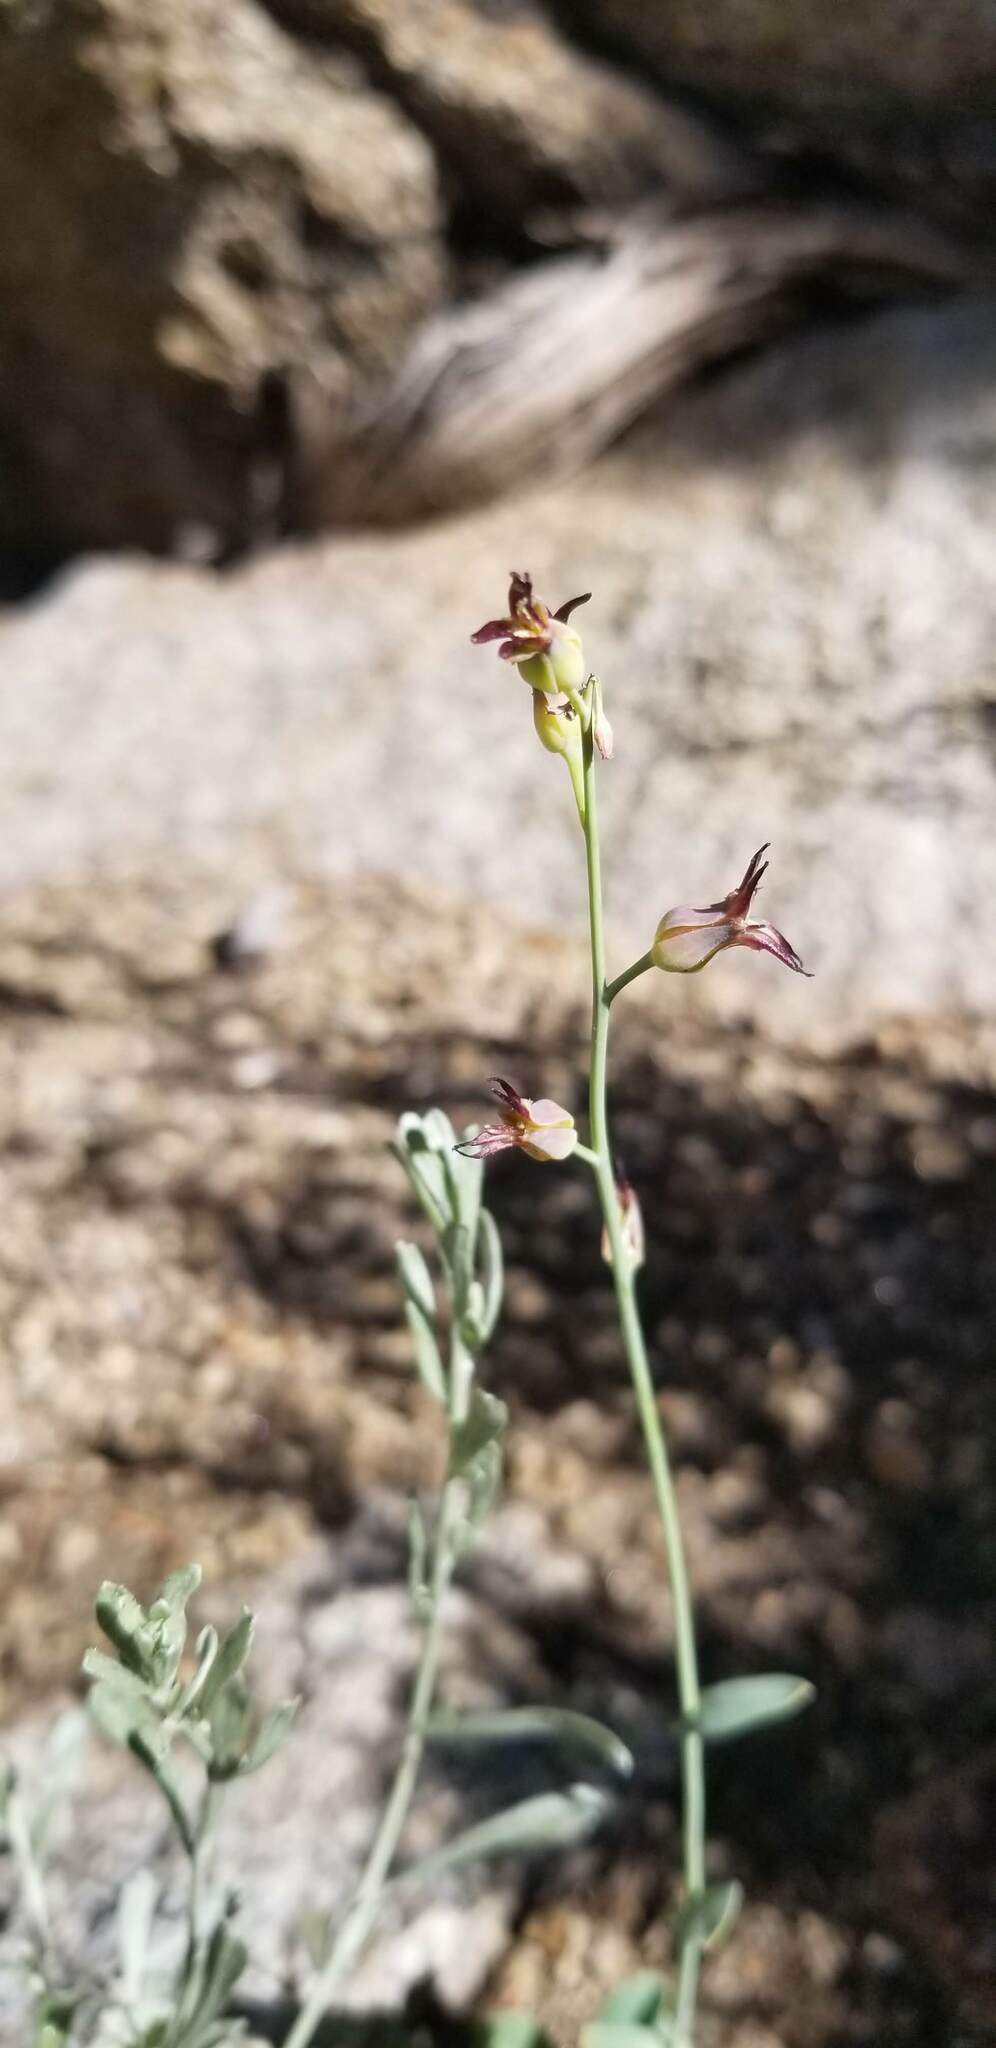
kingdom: Plantae
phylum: Tracheophyta
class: Magnoliopsida
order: Brassicales
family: Brassicaceae
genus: Streptanthus
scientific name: Streptanthus cordatus
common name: Heart-leaf jewel-flower
